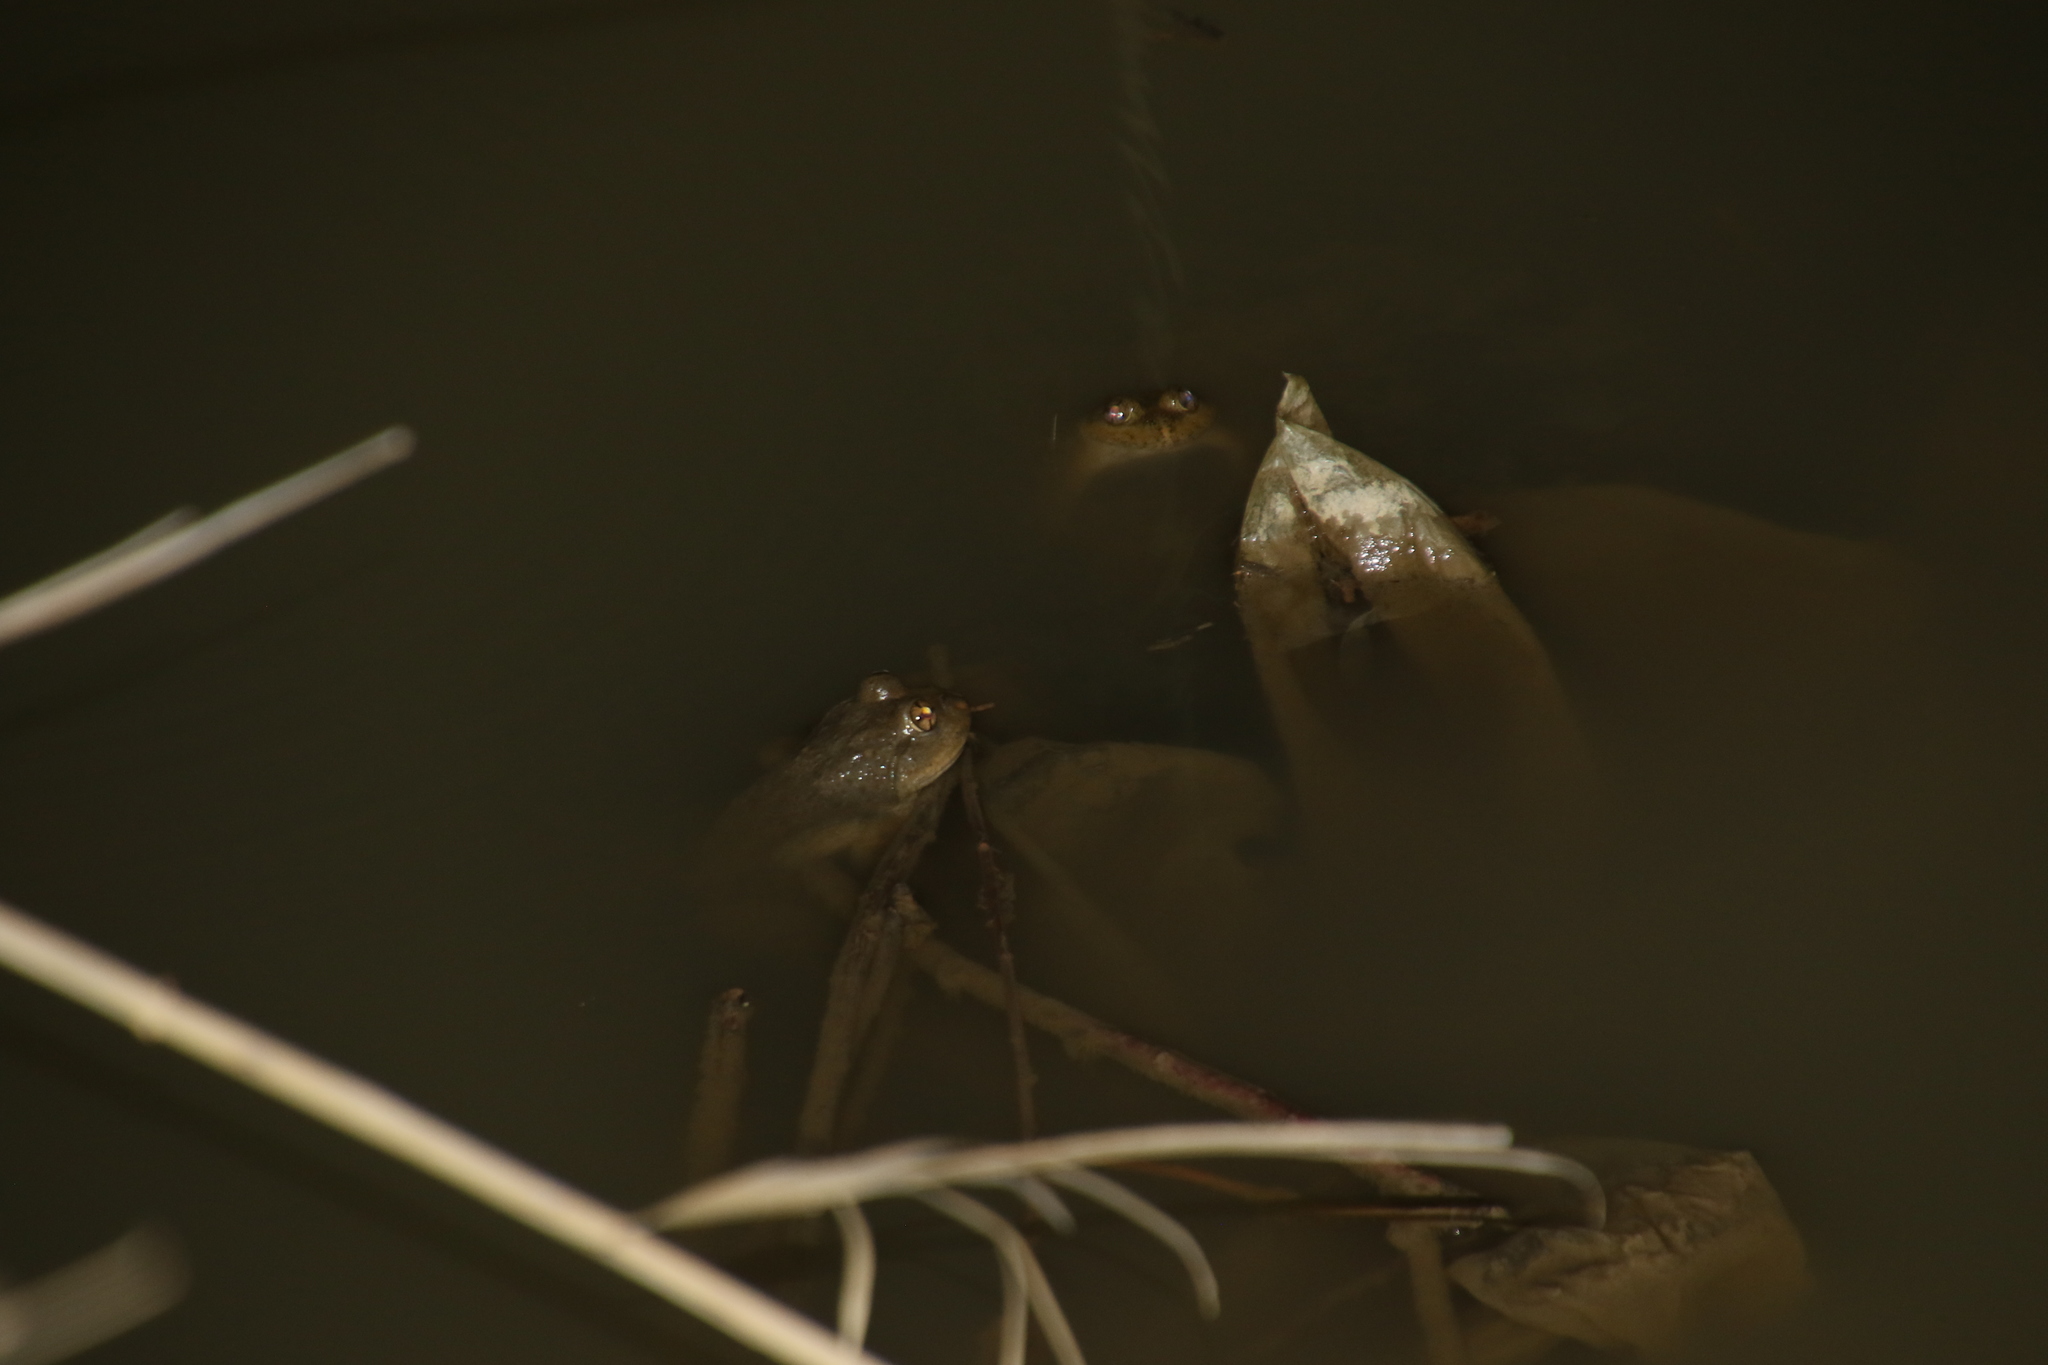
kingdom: Animalia
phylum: Chordata
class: Amphibia
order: Anura
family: Dicroglossidae
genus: Chrysopaa
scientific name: Chrysopaa sternosignata
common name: Murray's frog
